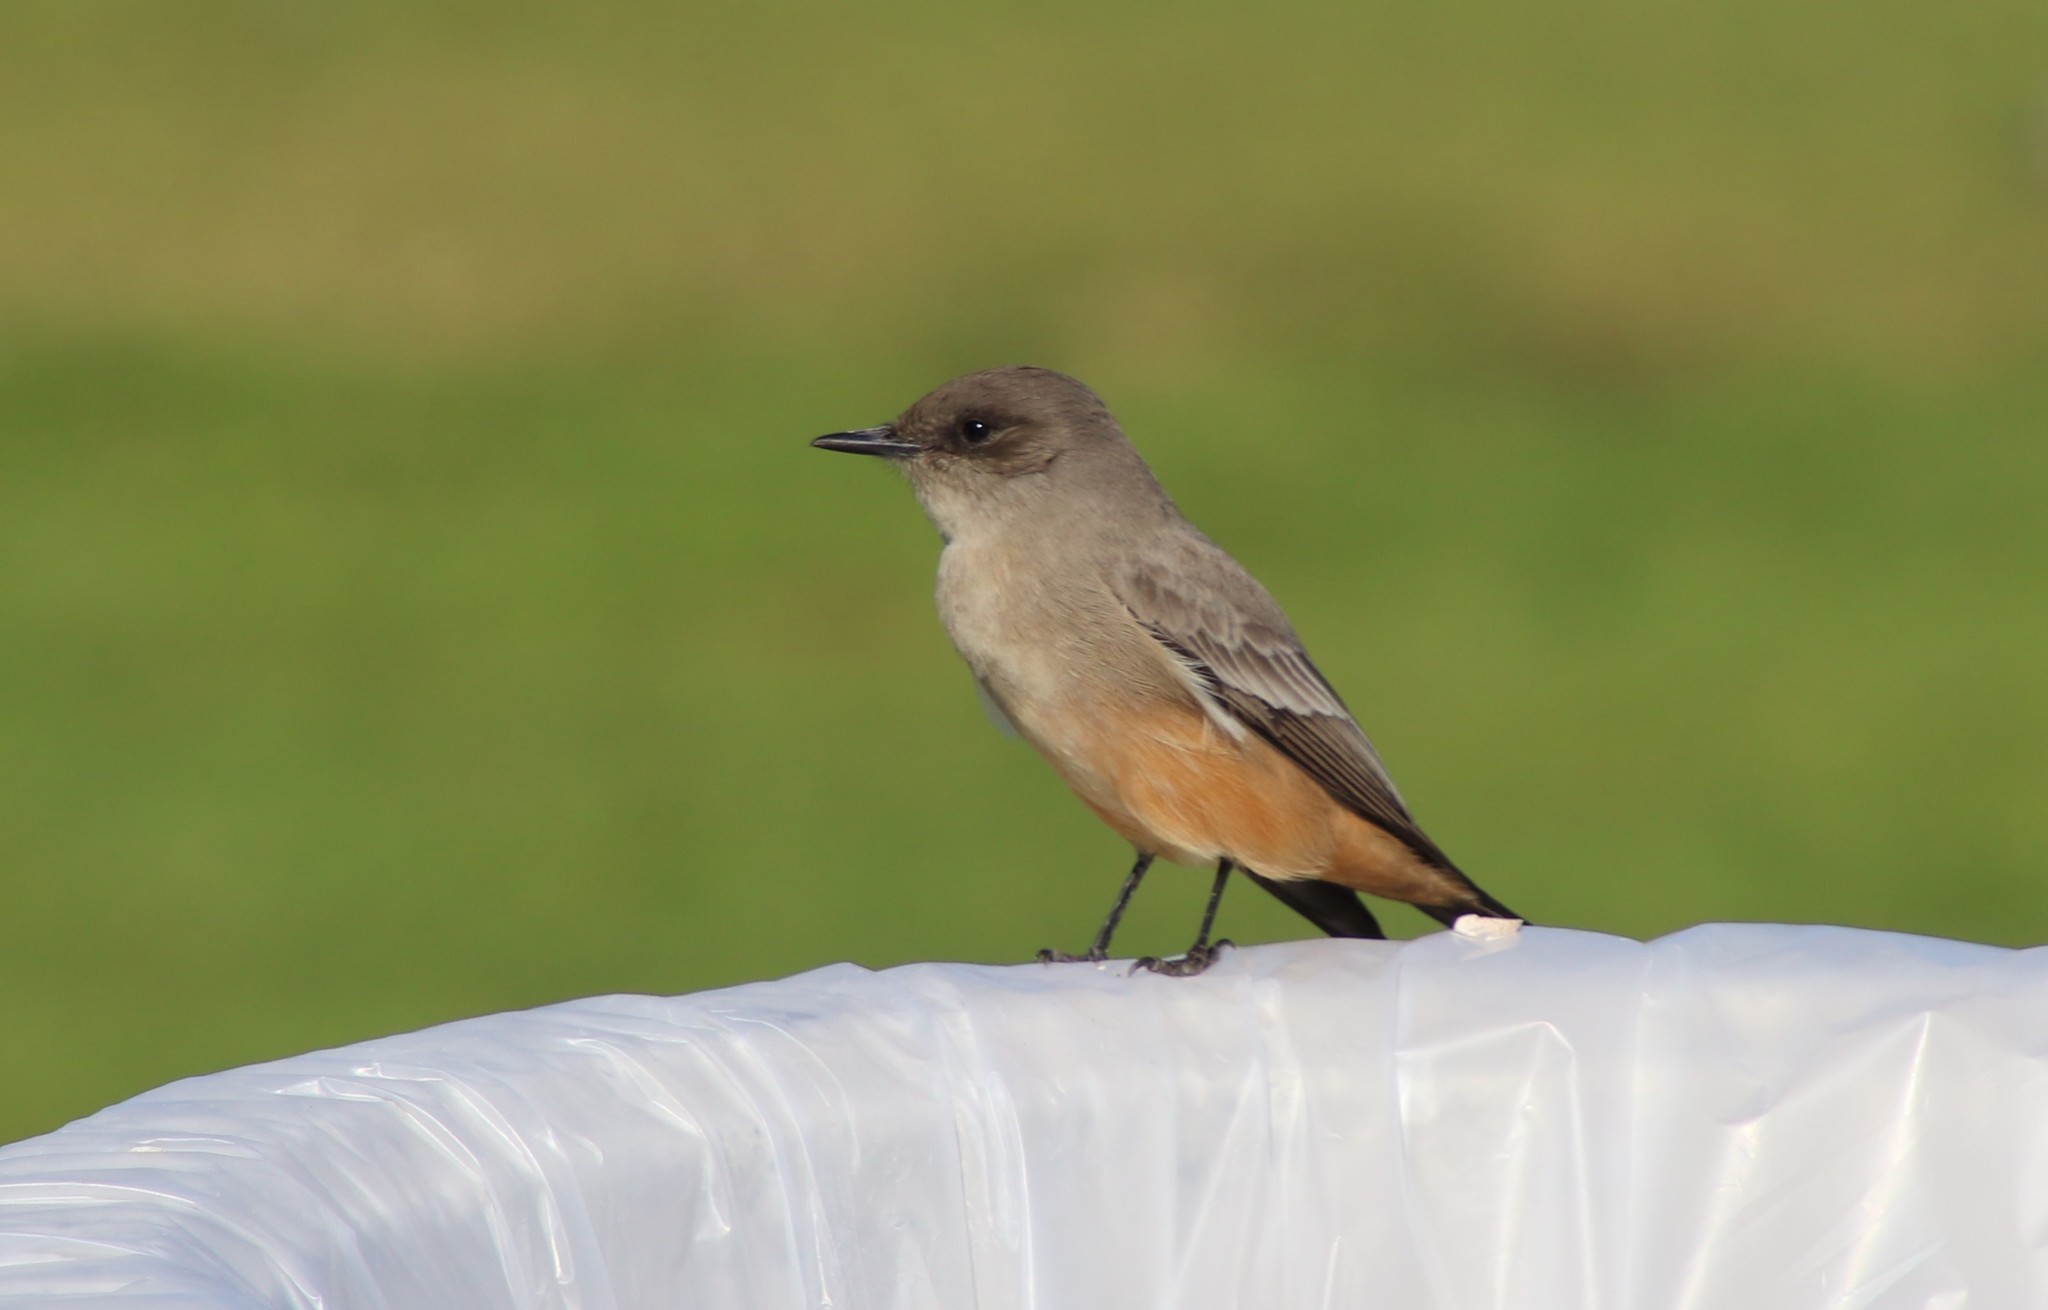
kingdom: Animalia
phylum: Chordata
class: Aves
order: Passeriformes
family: Tyrannidae
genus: Sayornis
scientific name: Sayornis saya
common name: Say's phoebe
